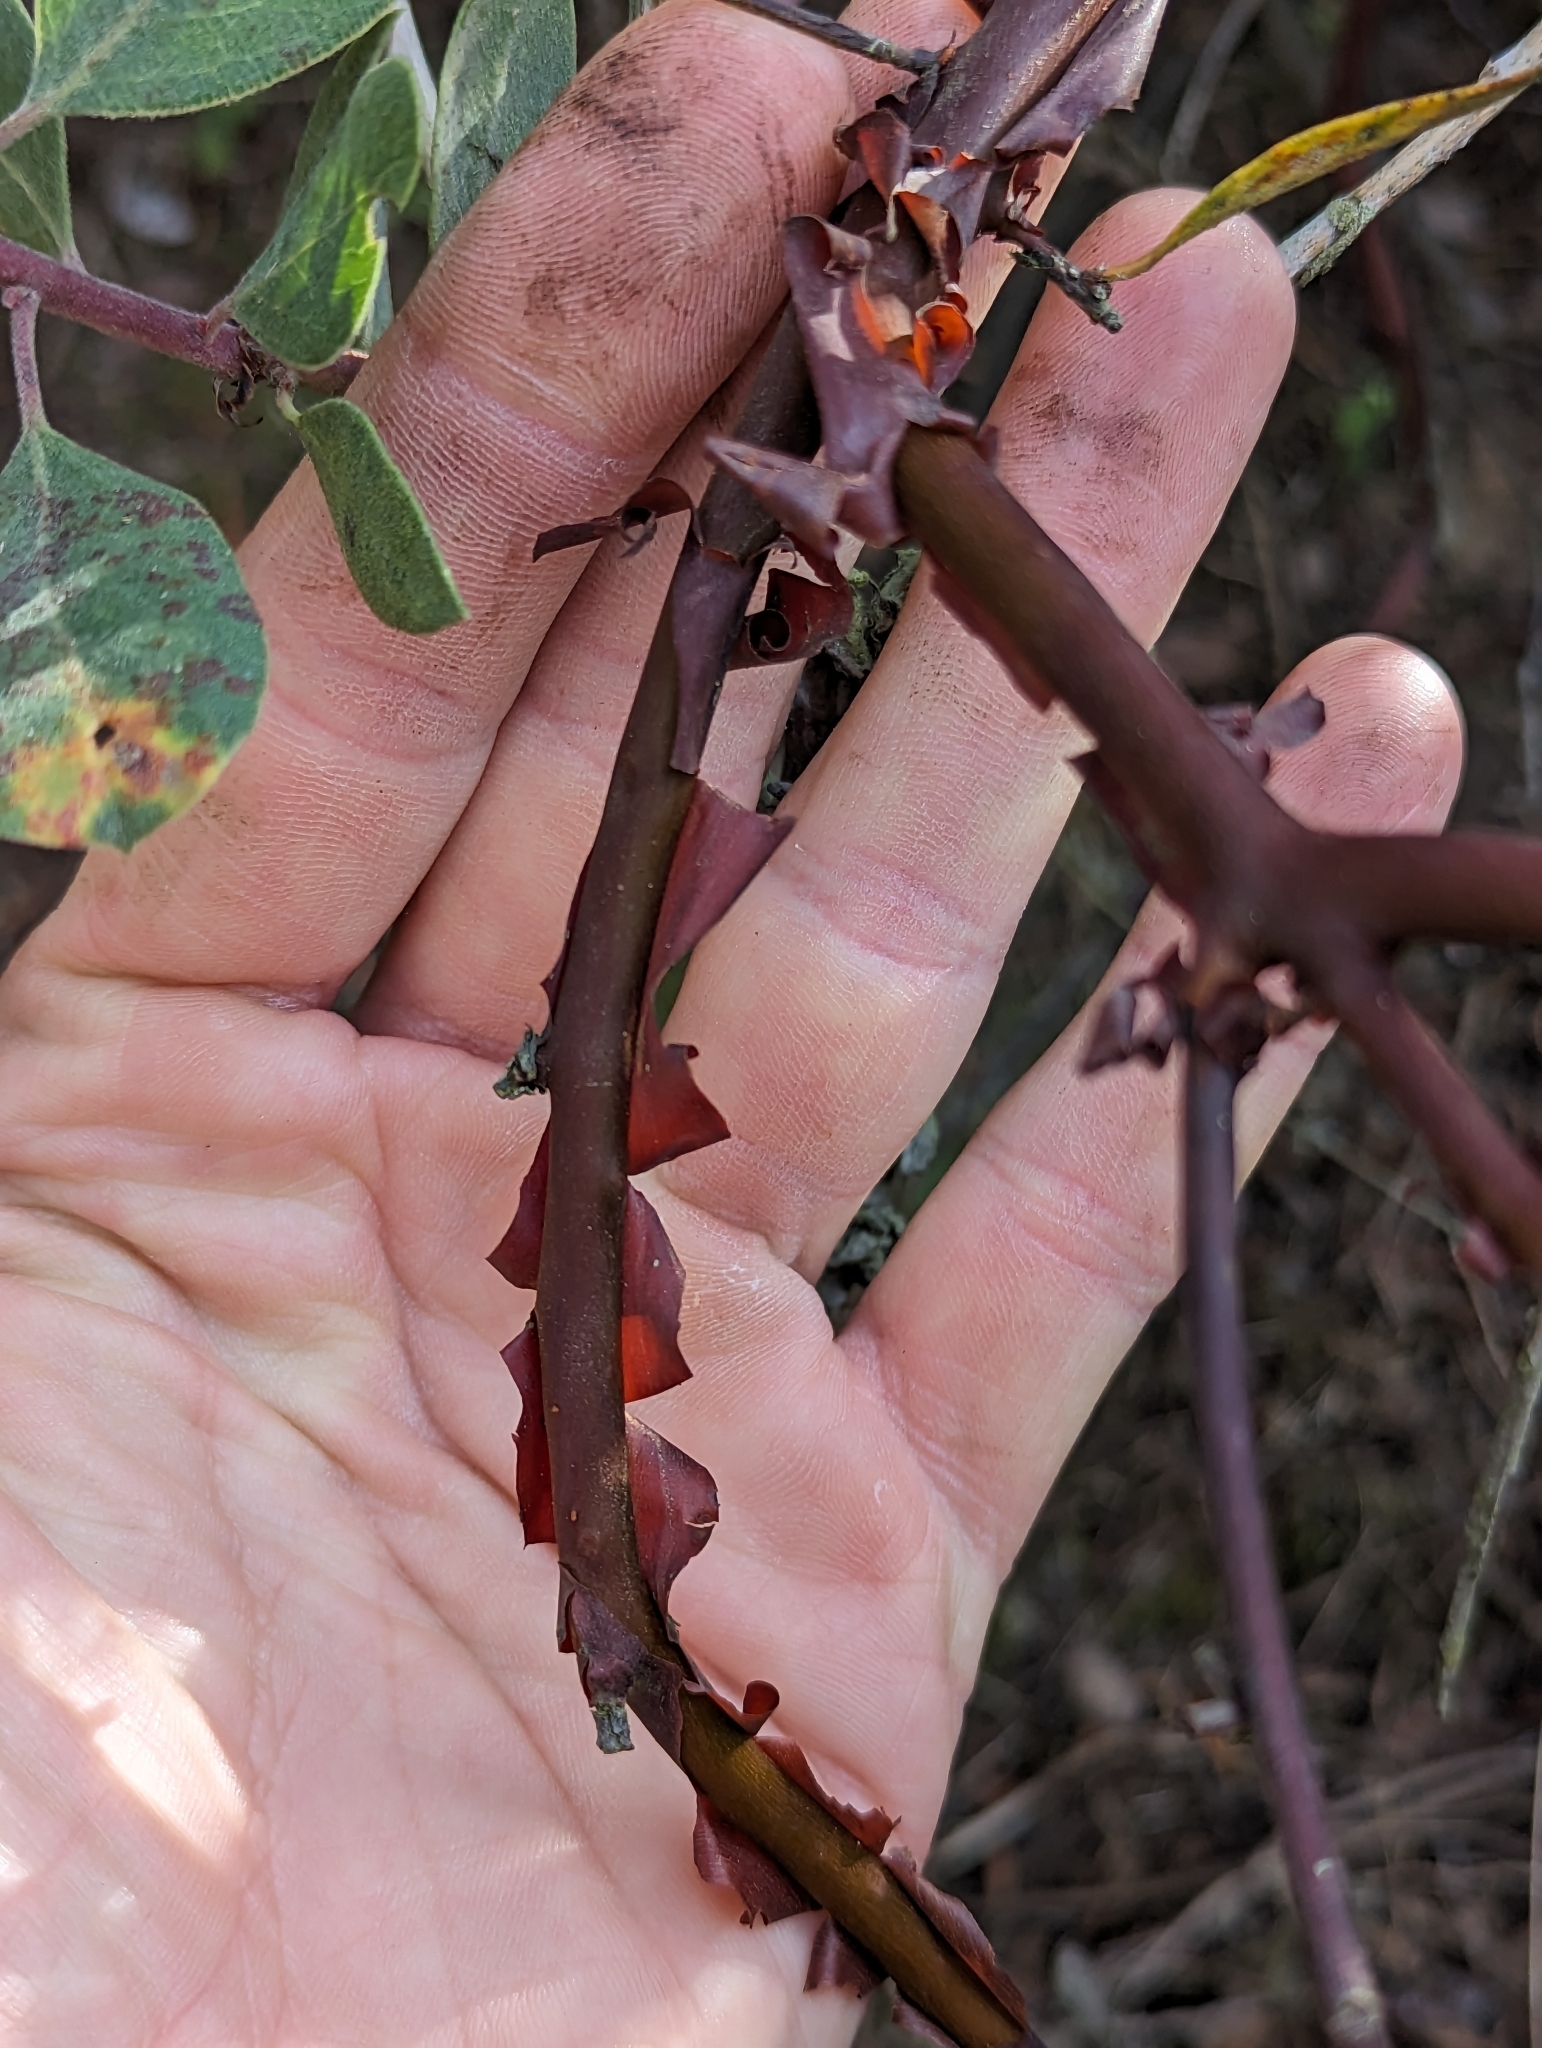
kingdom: Plantae
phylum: Tracheophyta
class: Magnoliopsida
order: Ericales
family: Ericaceae
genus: Arctostaphylos
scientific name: Arctostaphylos glandulosa
